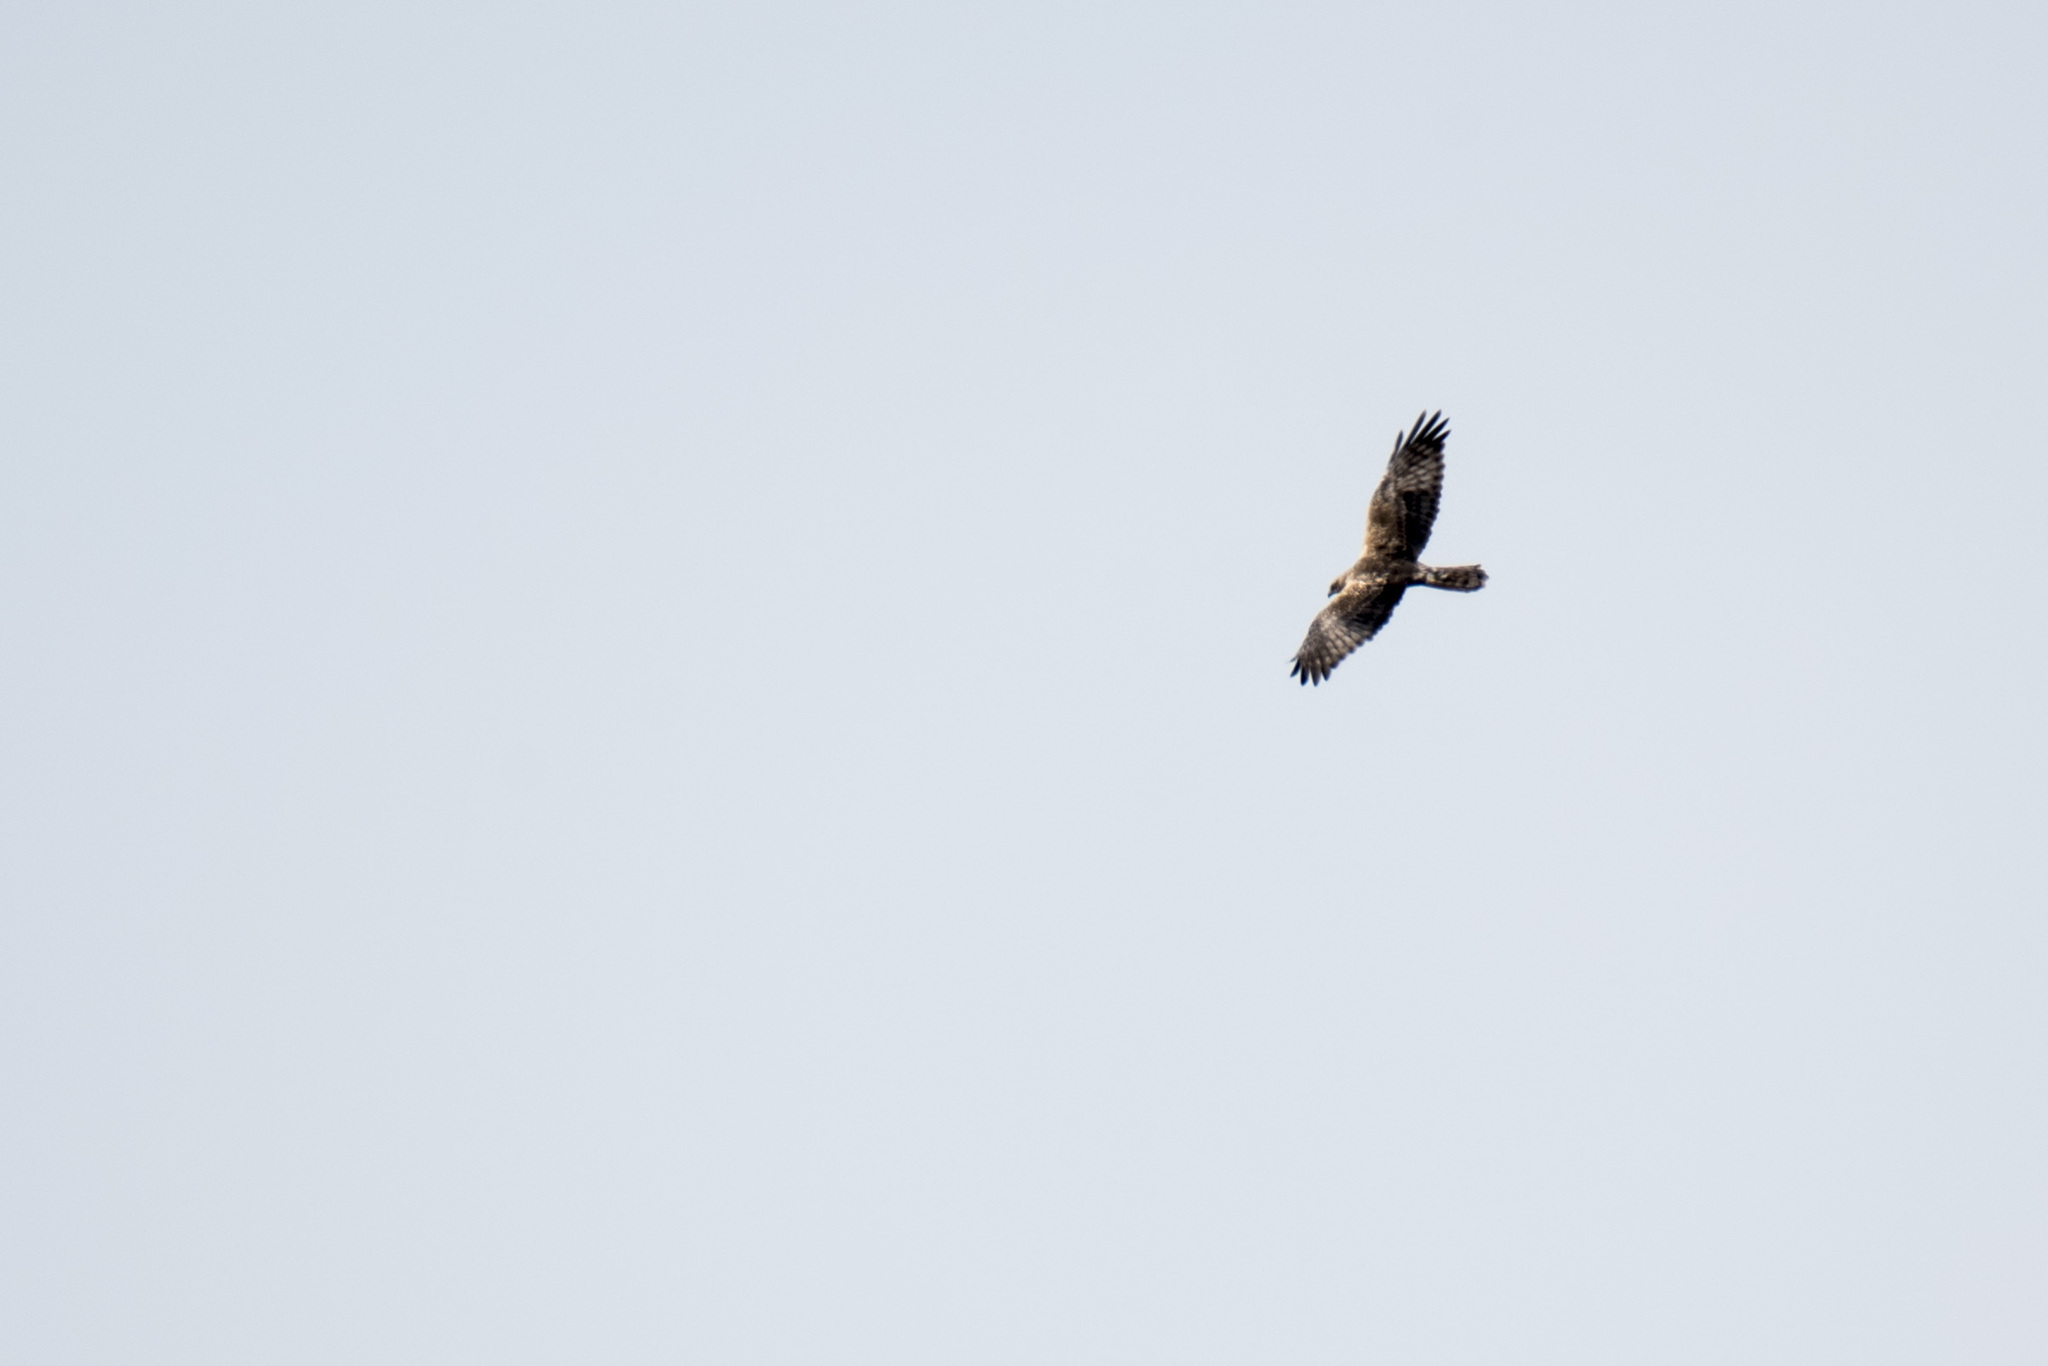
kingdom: Animalia
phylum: Chordata
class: Aves
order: Accipitriformes
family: Accipitridae
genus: Circus
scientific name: Circus spilonotus
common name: Eastern marsh-harrier
